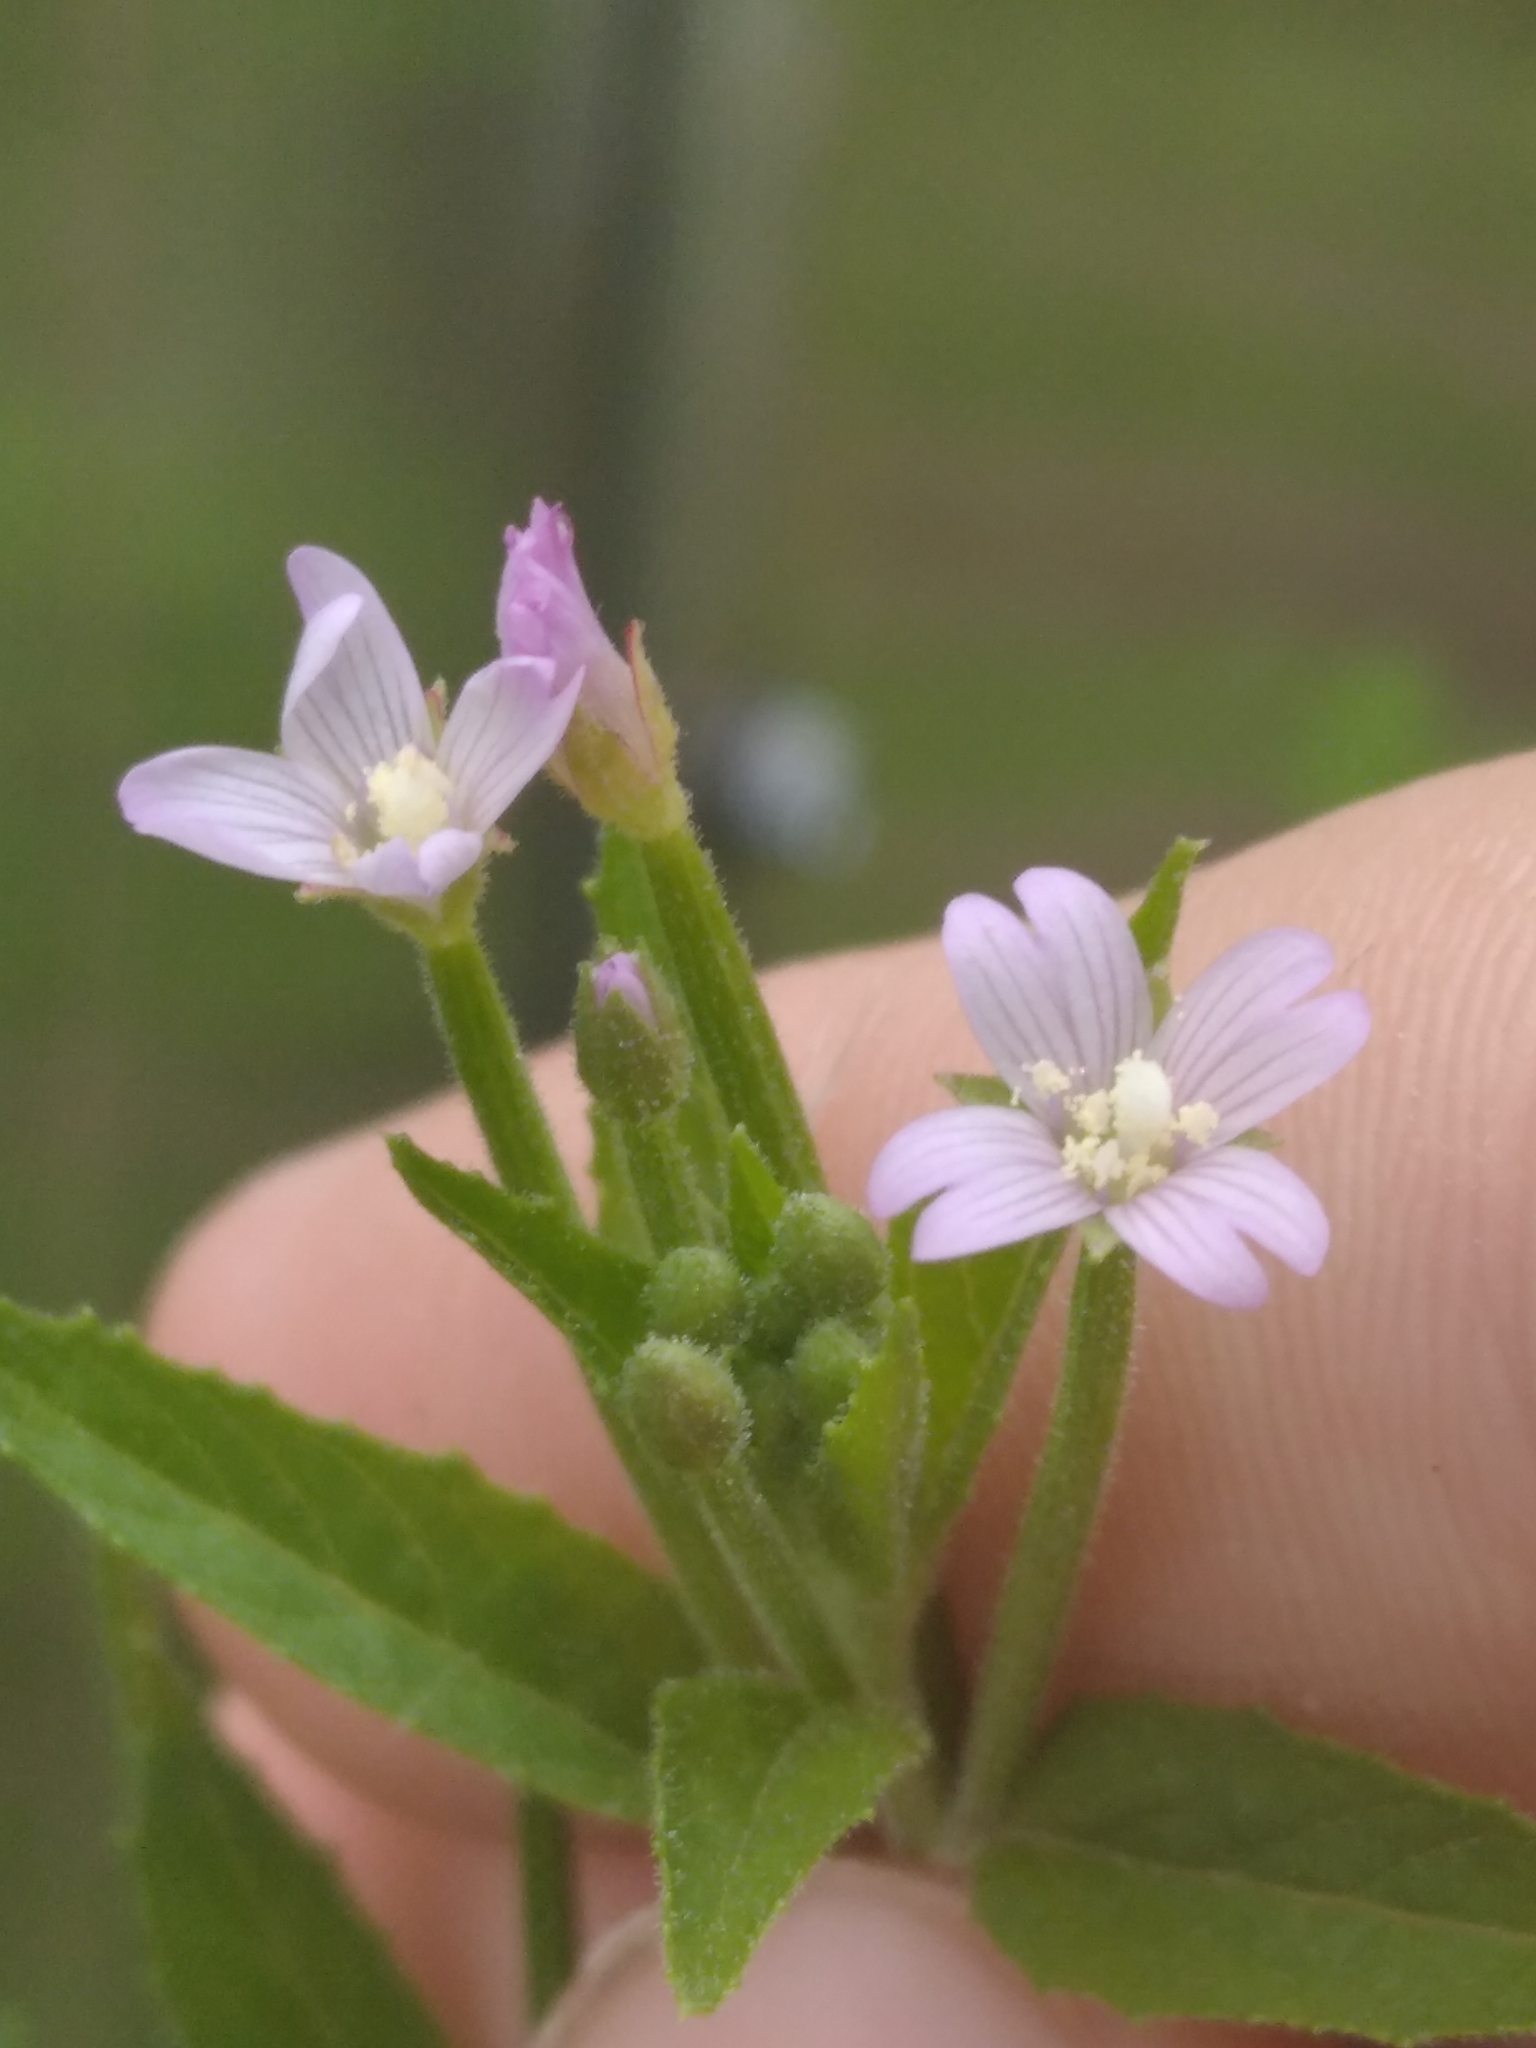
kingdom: Plantae
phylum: Tracheophyta
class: Magnoliopsida
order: Myrtales
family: Onagraceae
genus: Epilobium
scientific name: Epilobium ciliatum
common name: American willowherb
